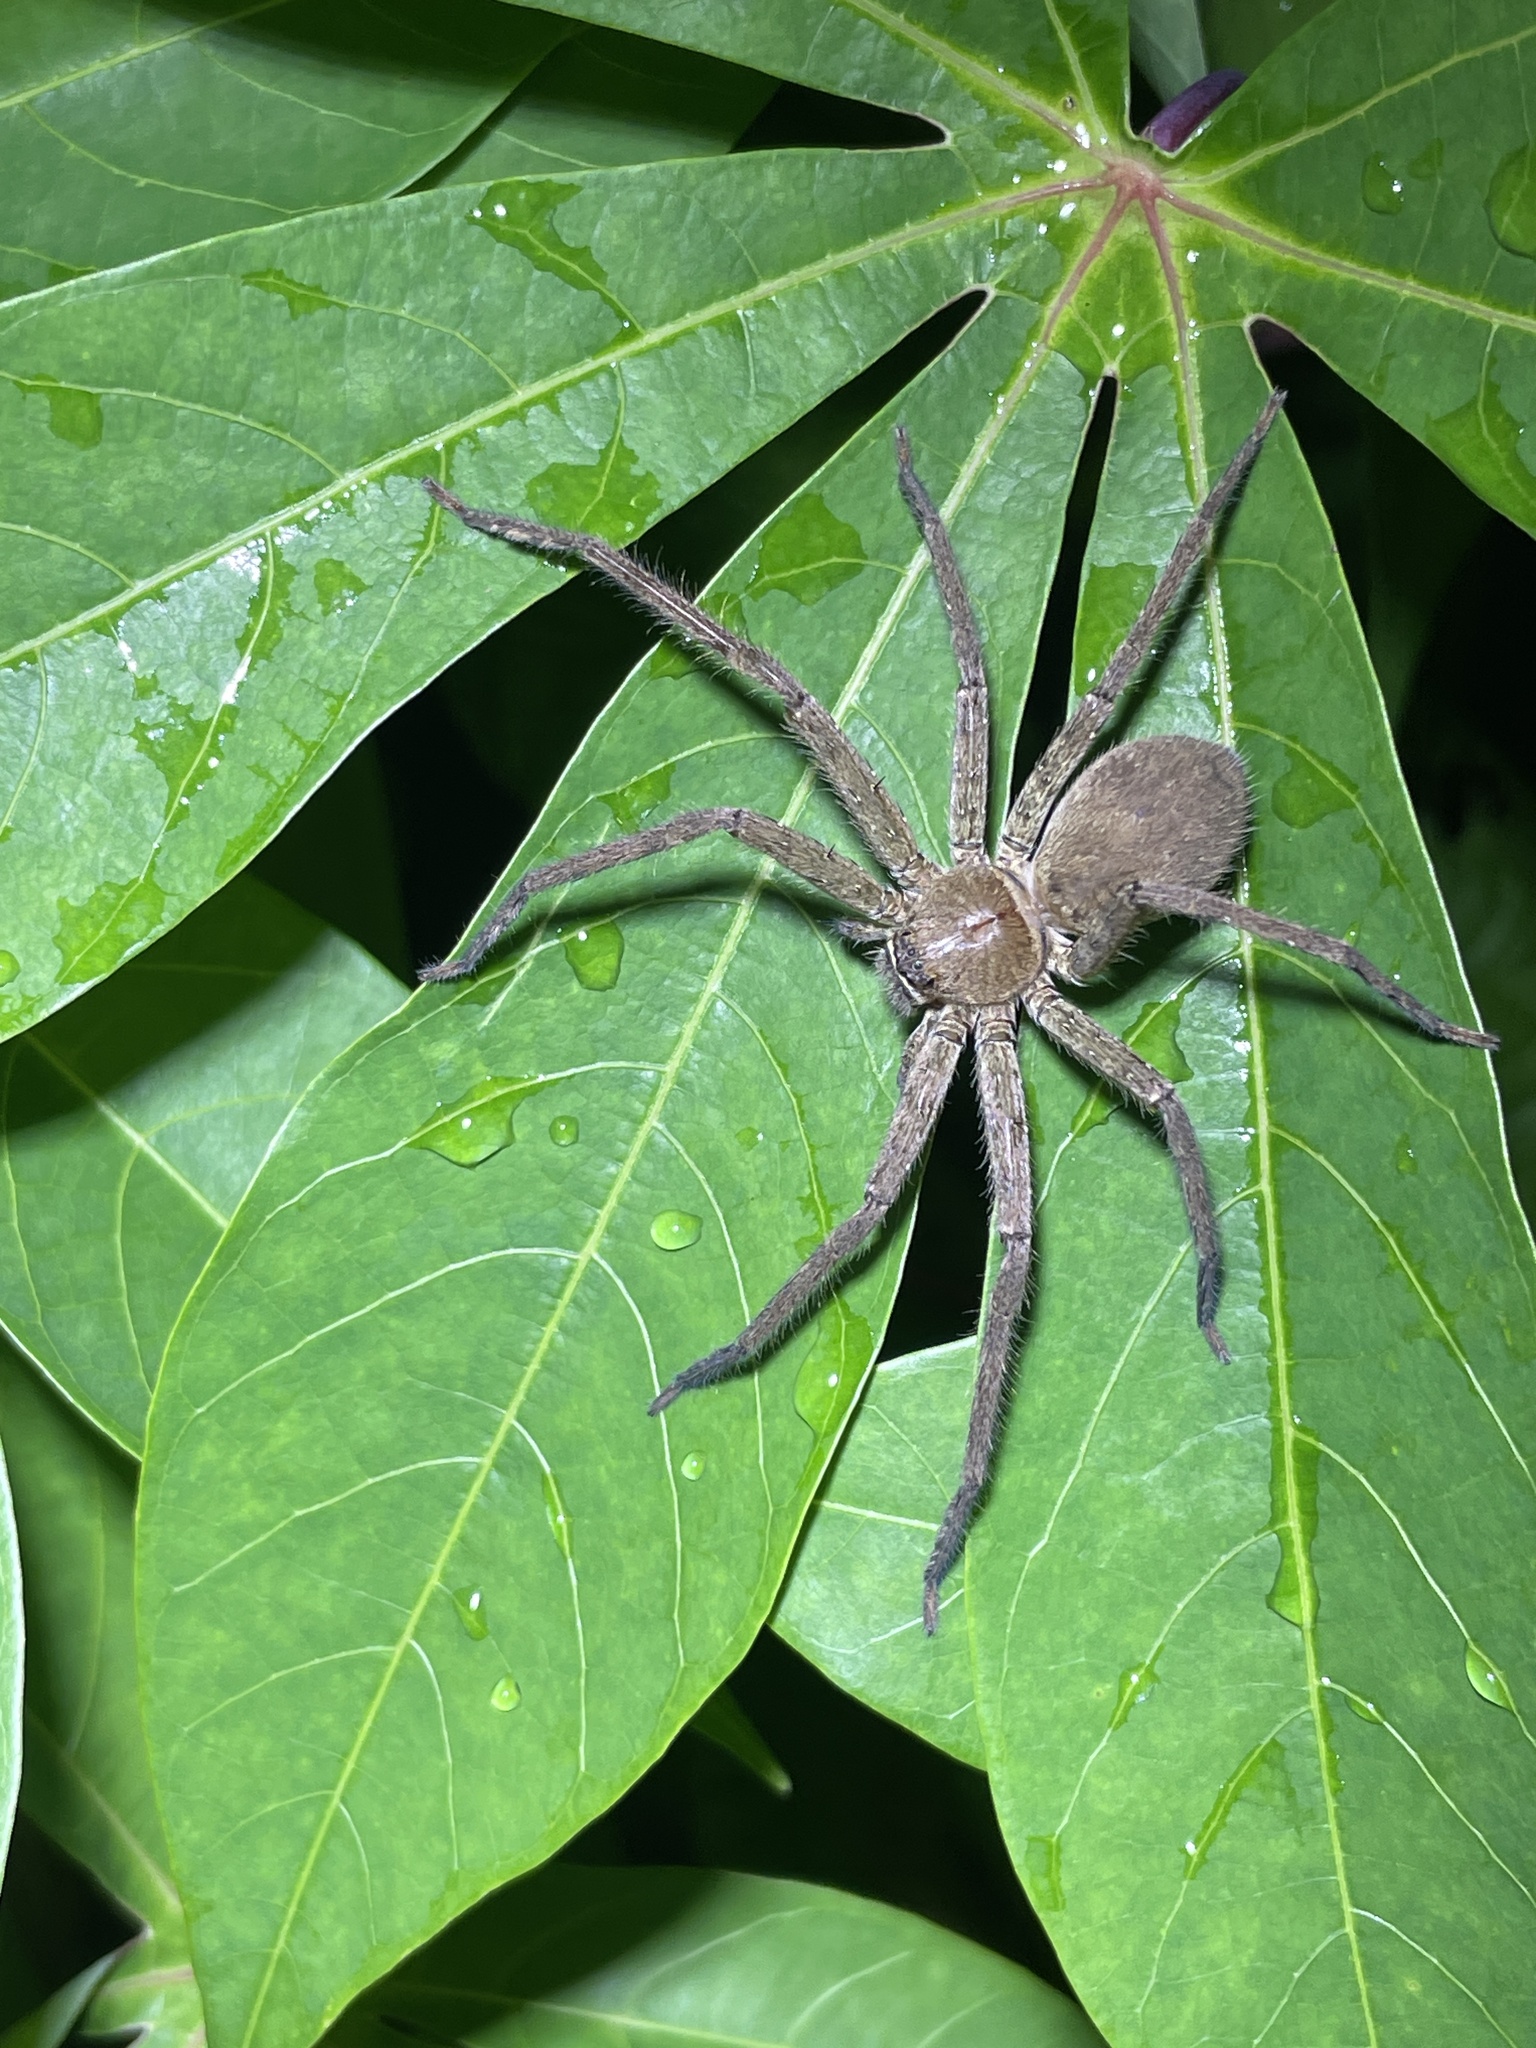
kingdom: Animalia
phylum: Arthropoda
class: Arachnida
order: Araneae
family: Sparassidae
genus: Heteropoda
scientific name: Heteropoda venatoria
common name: Huntsman spider
